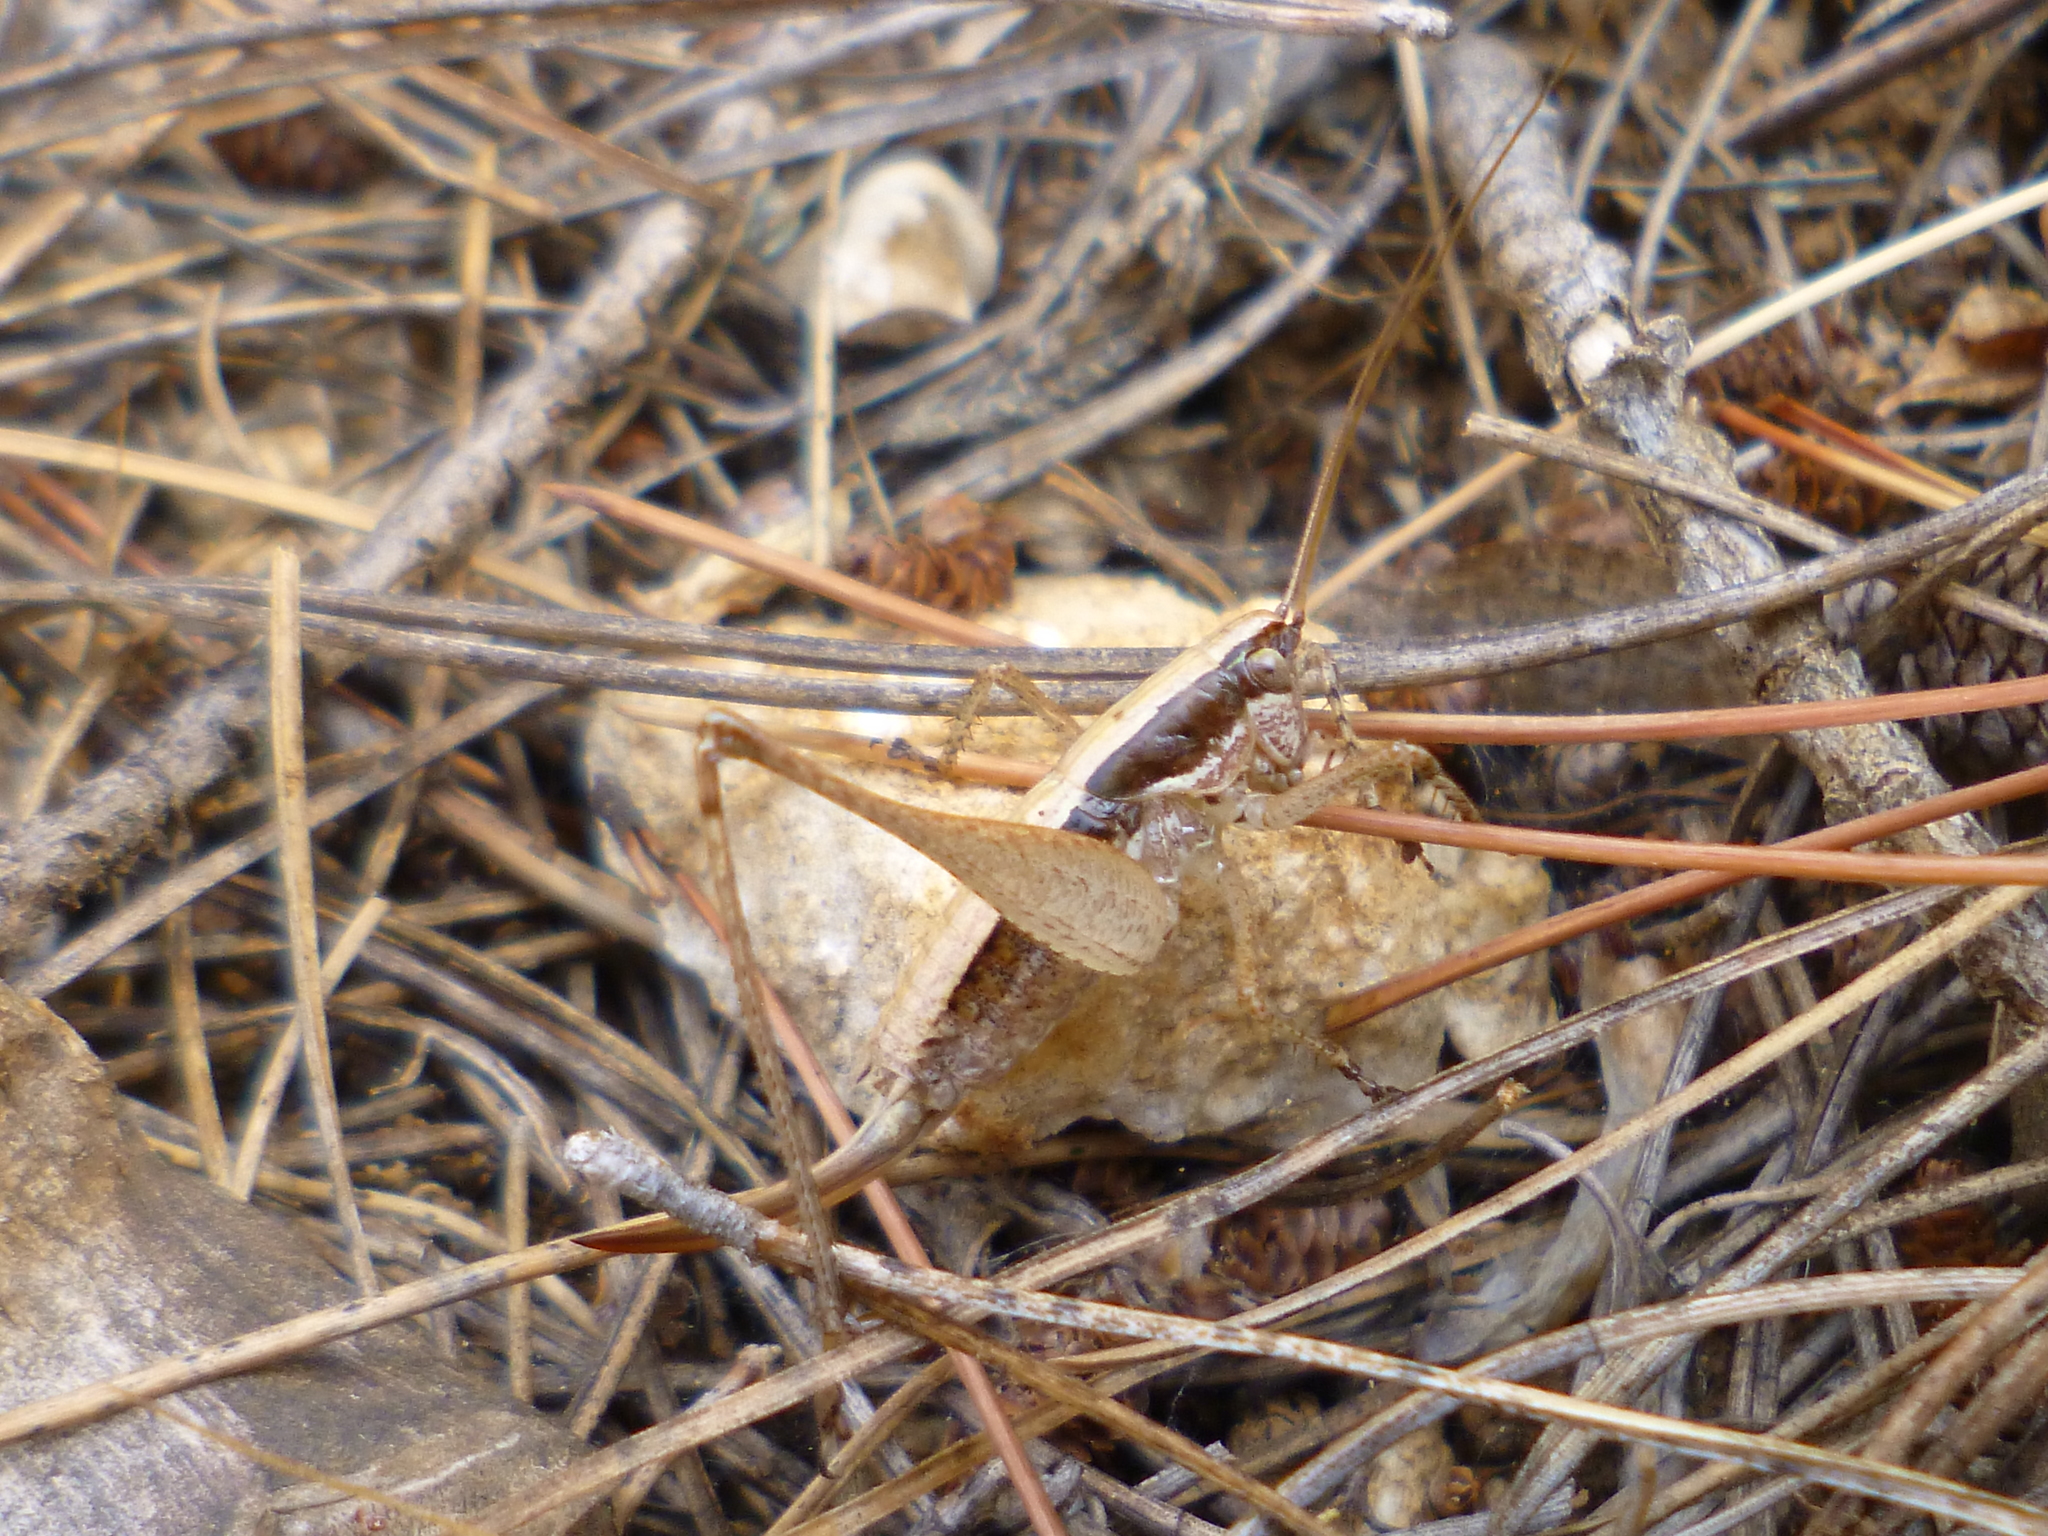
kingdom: Animalia
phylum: Arthropoda
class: Insecta
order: Orthoptera
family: Tettigoniidae
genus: Yersinella
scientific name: Yersinella raymondii
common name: Raymond's bush-cricket
